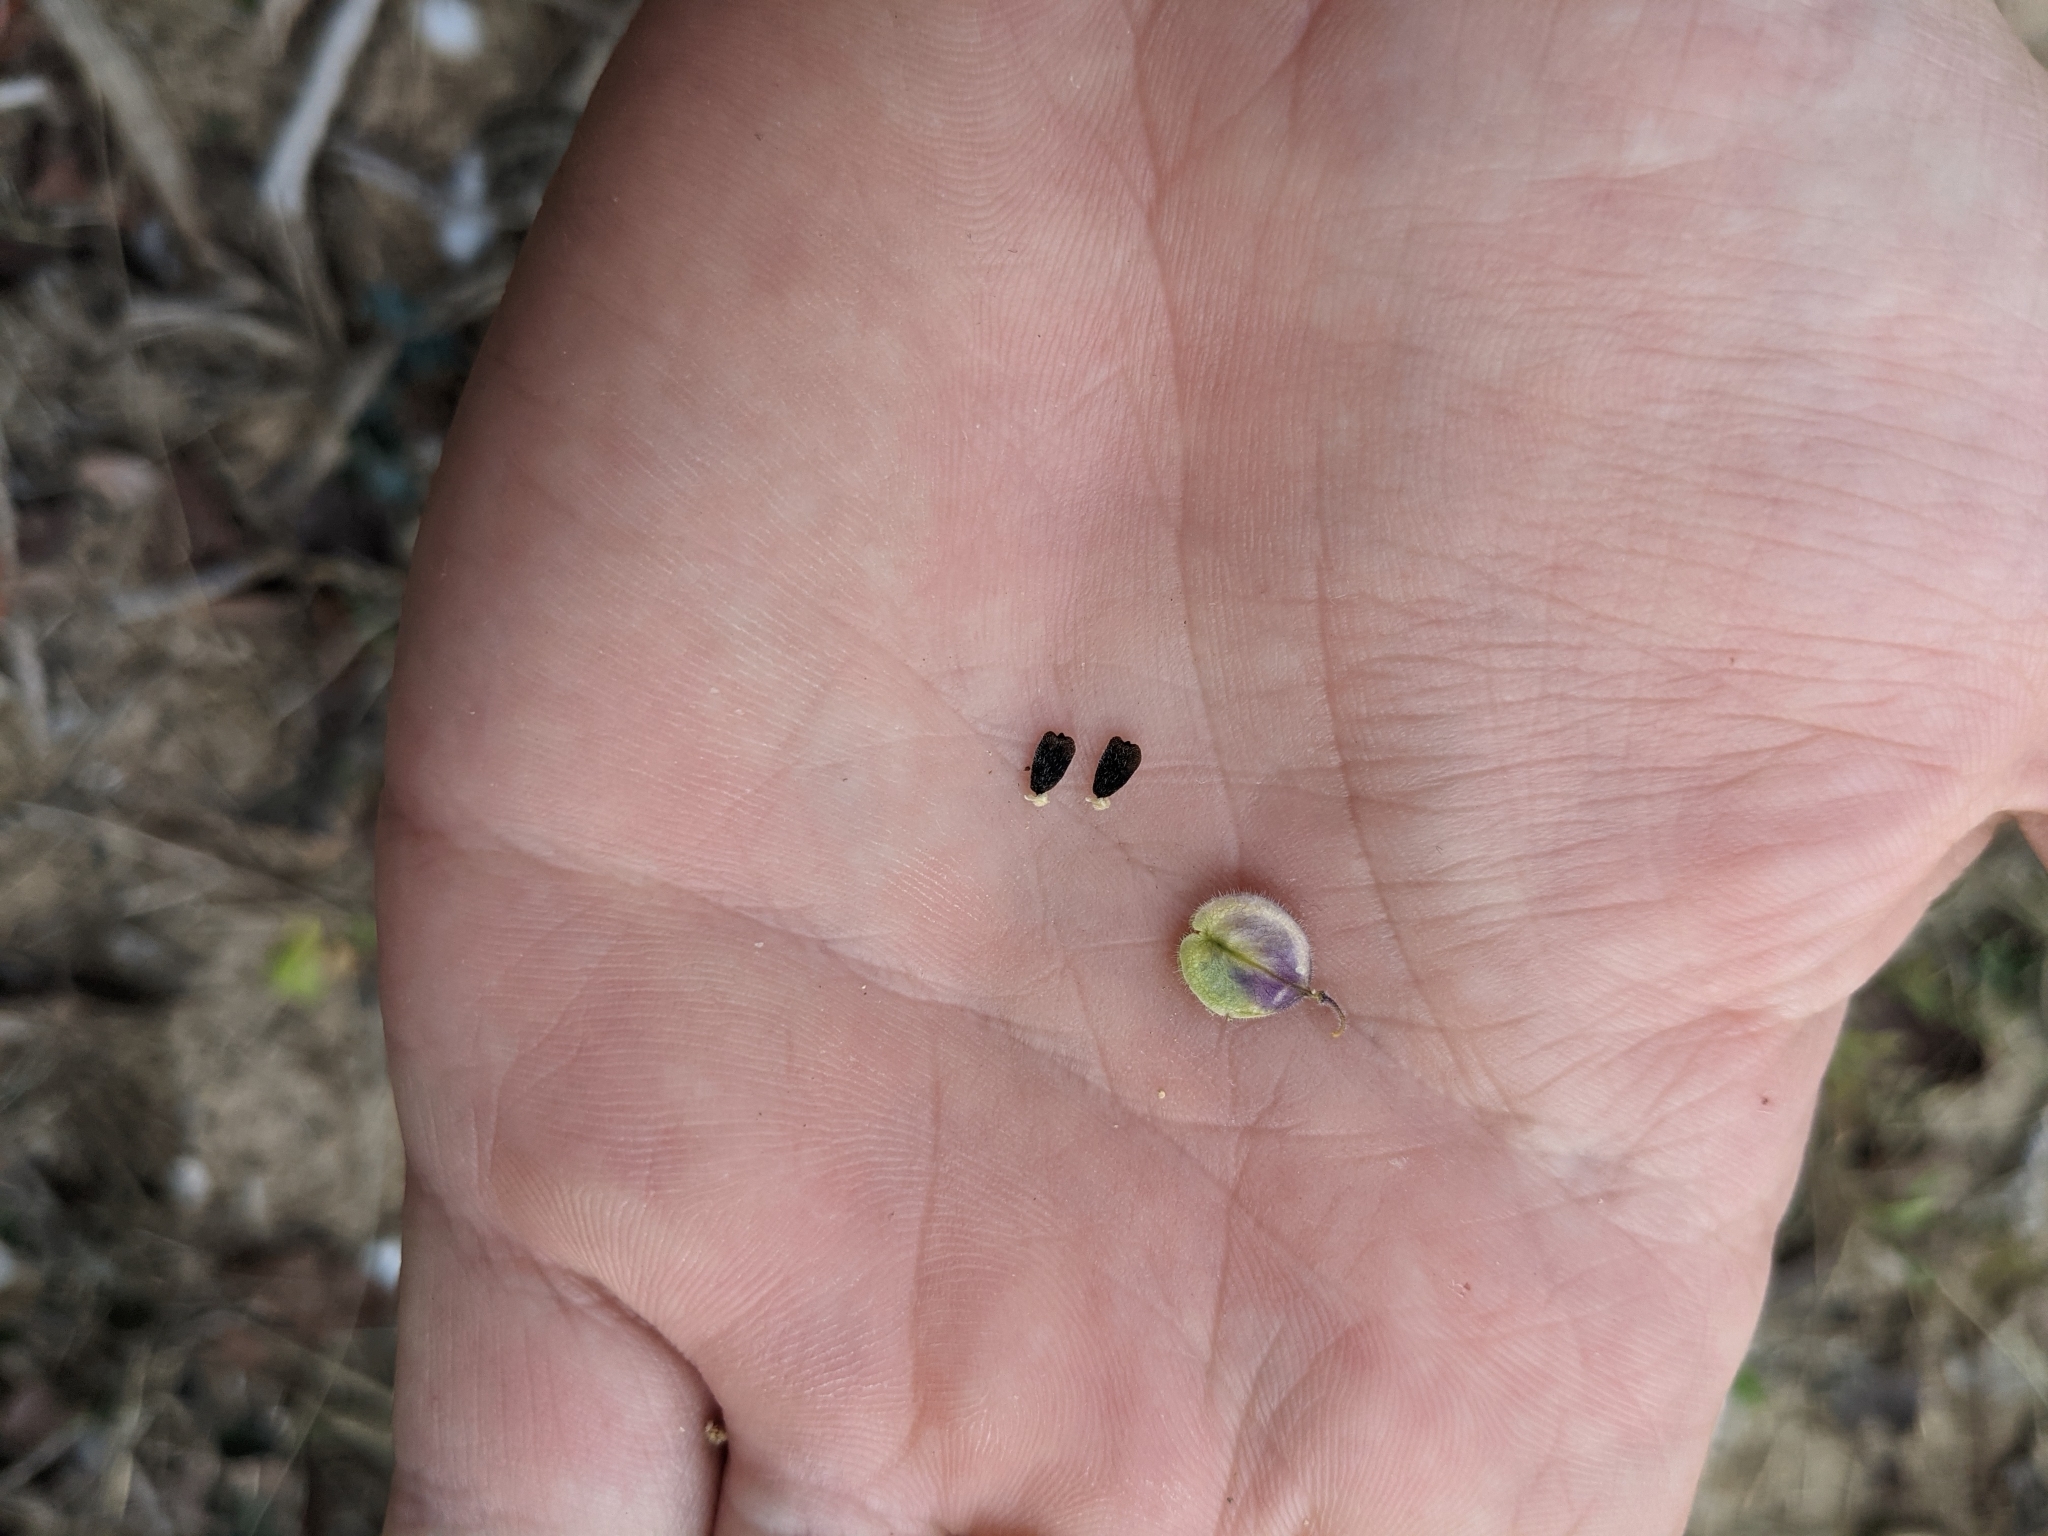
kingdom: Plantae
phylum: Tracheophyta
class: Magnoliopsida
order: Fabales
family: Polygalaceae
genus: Hebecarpa
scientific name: Hebecarpa ovatifolia
